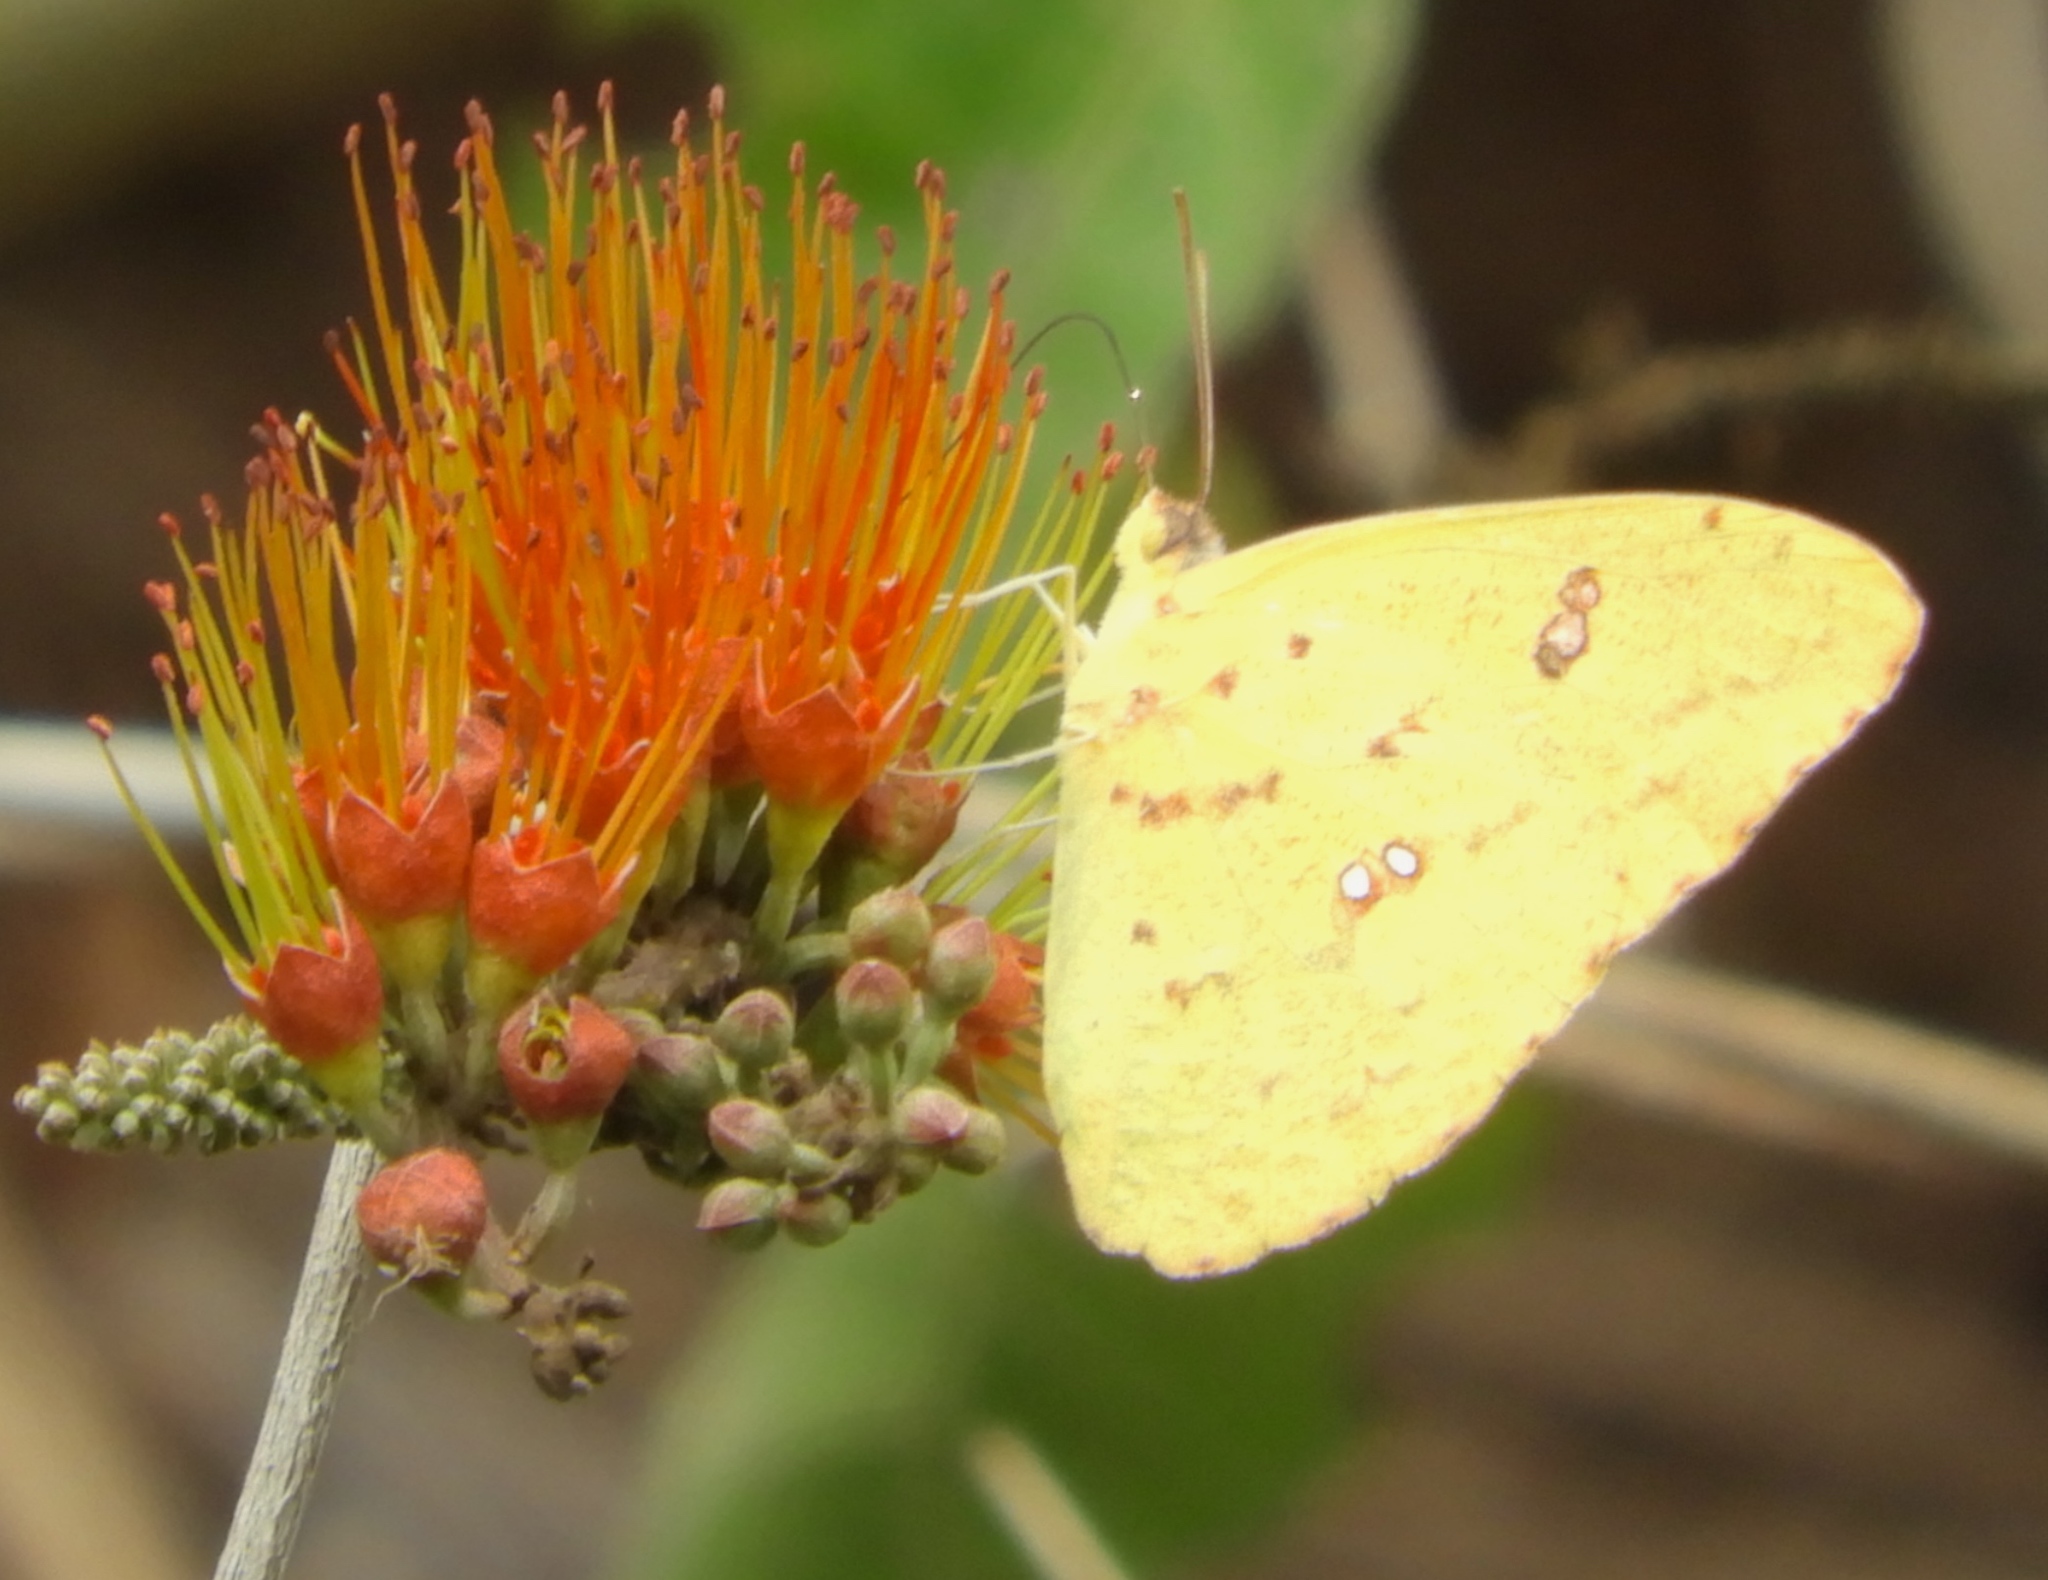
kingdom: Animalia
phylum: Arthropoda
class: Insecta
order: Lepidoptera
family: Pieridae
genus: Phoebis
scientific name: Phoebis
